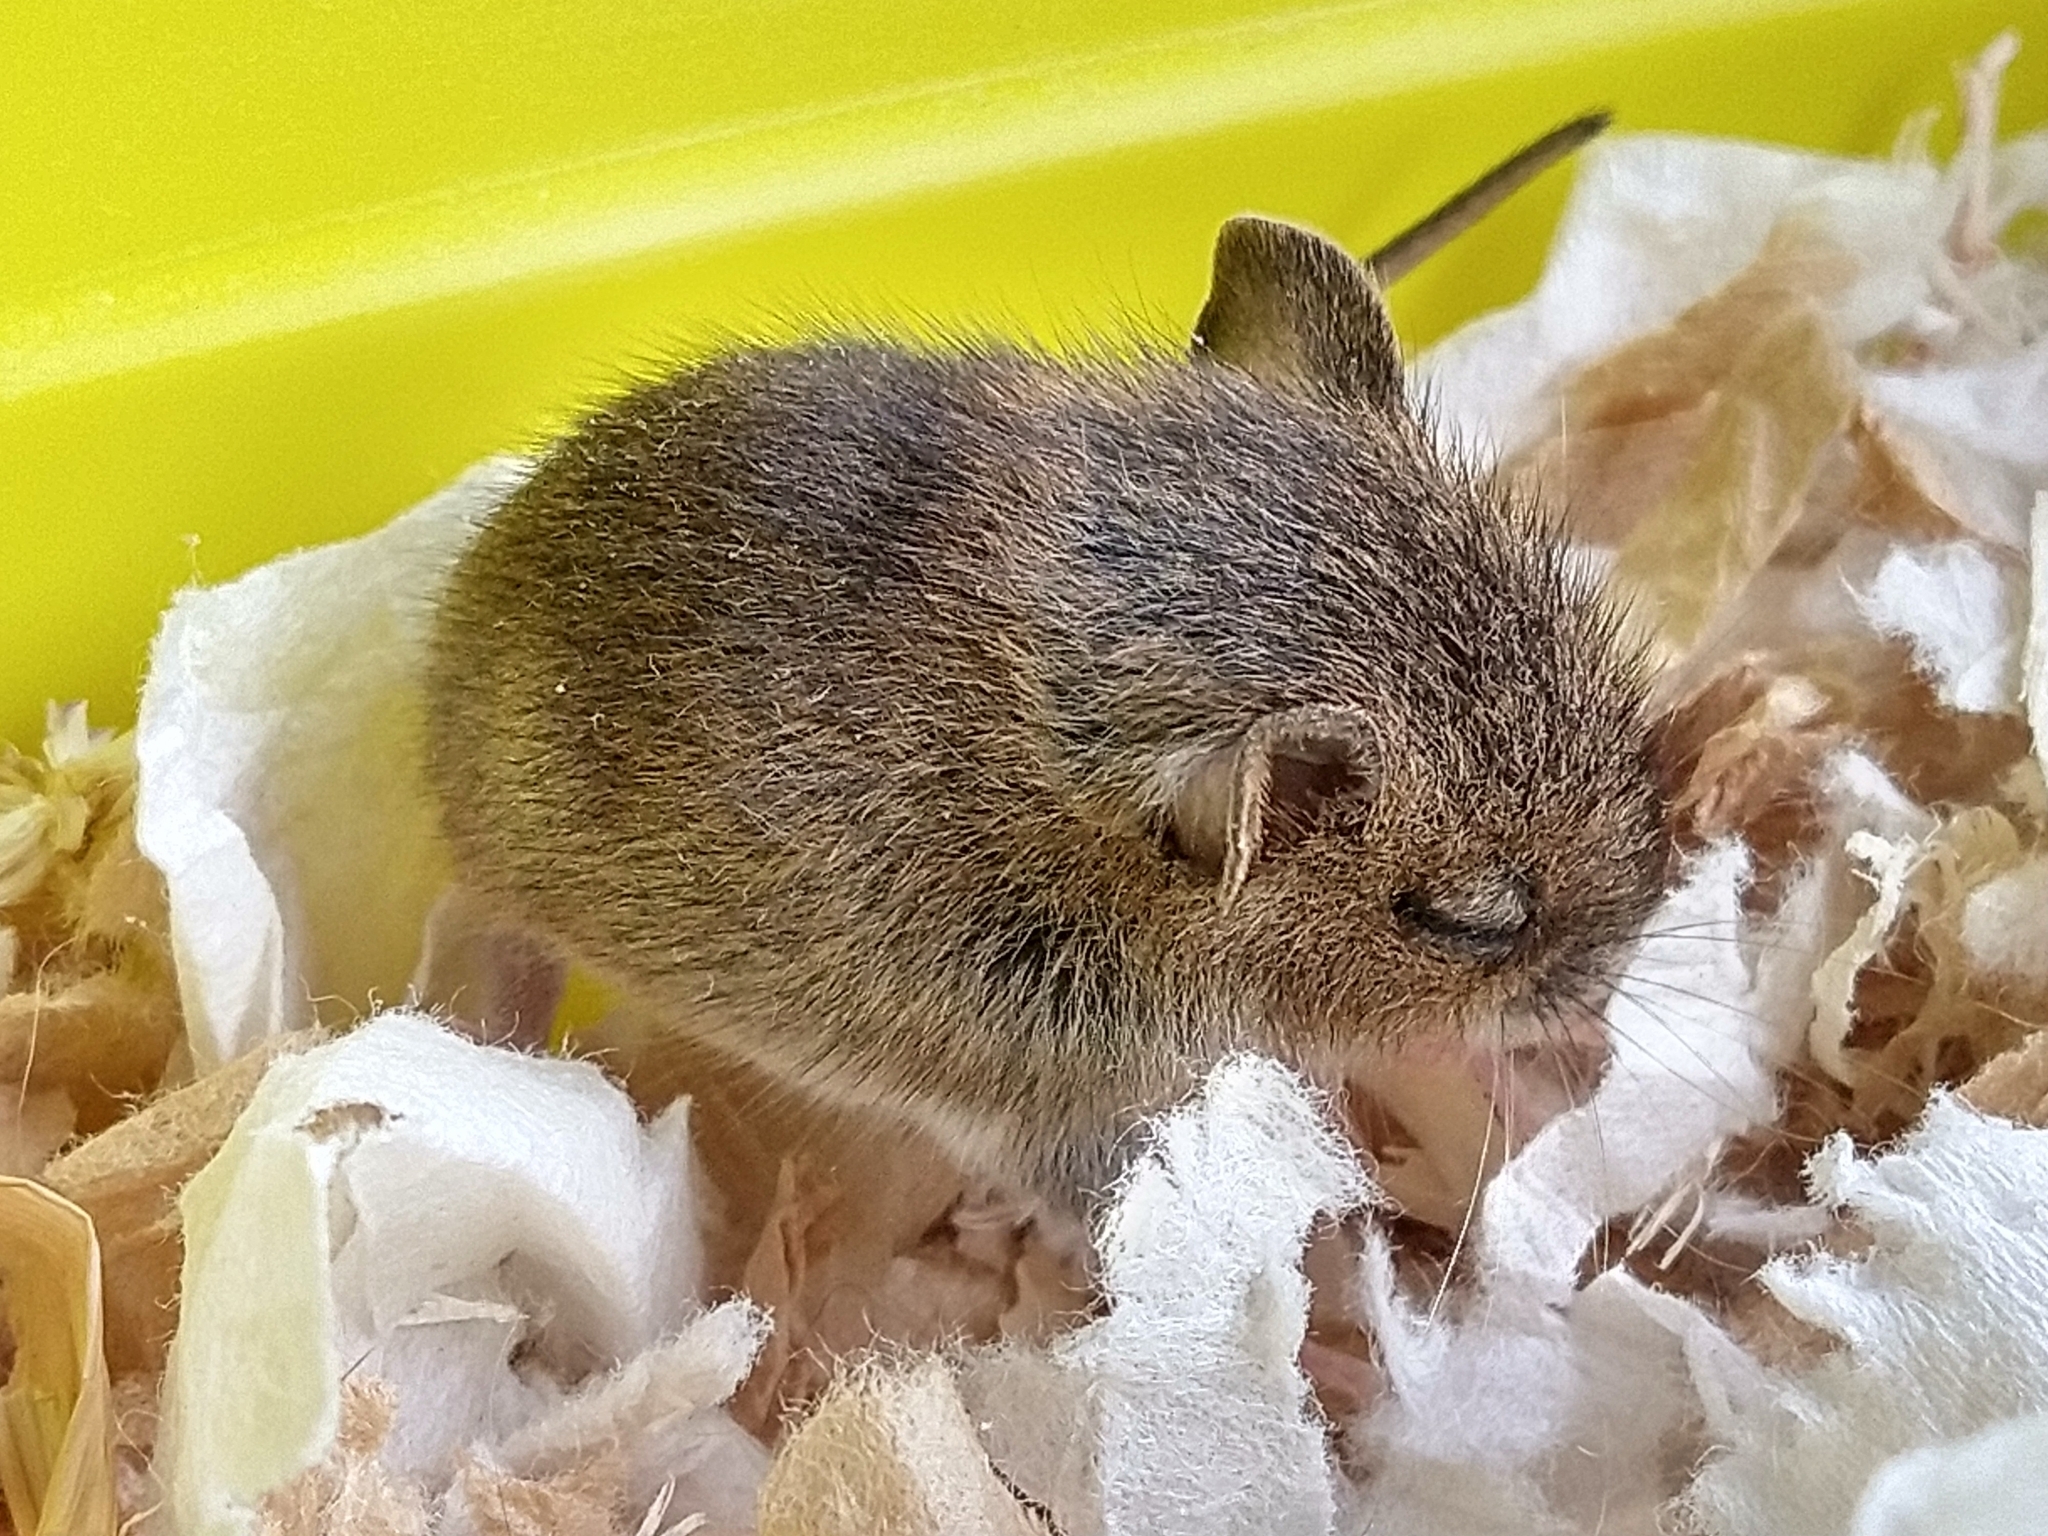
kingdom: Animalia
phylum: Chordata
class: Mammalia
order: Rodentia
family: Muridae
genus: Apodemus
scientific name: Apodemus sylvaticus
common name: Wood mouse
